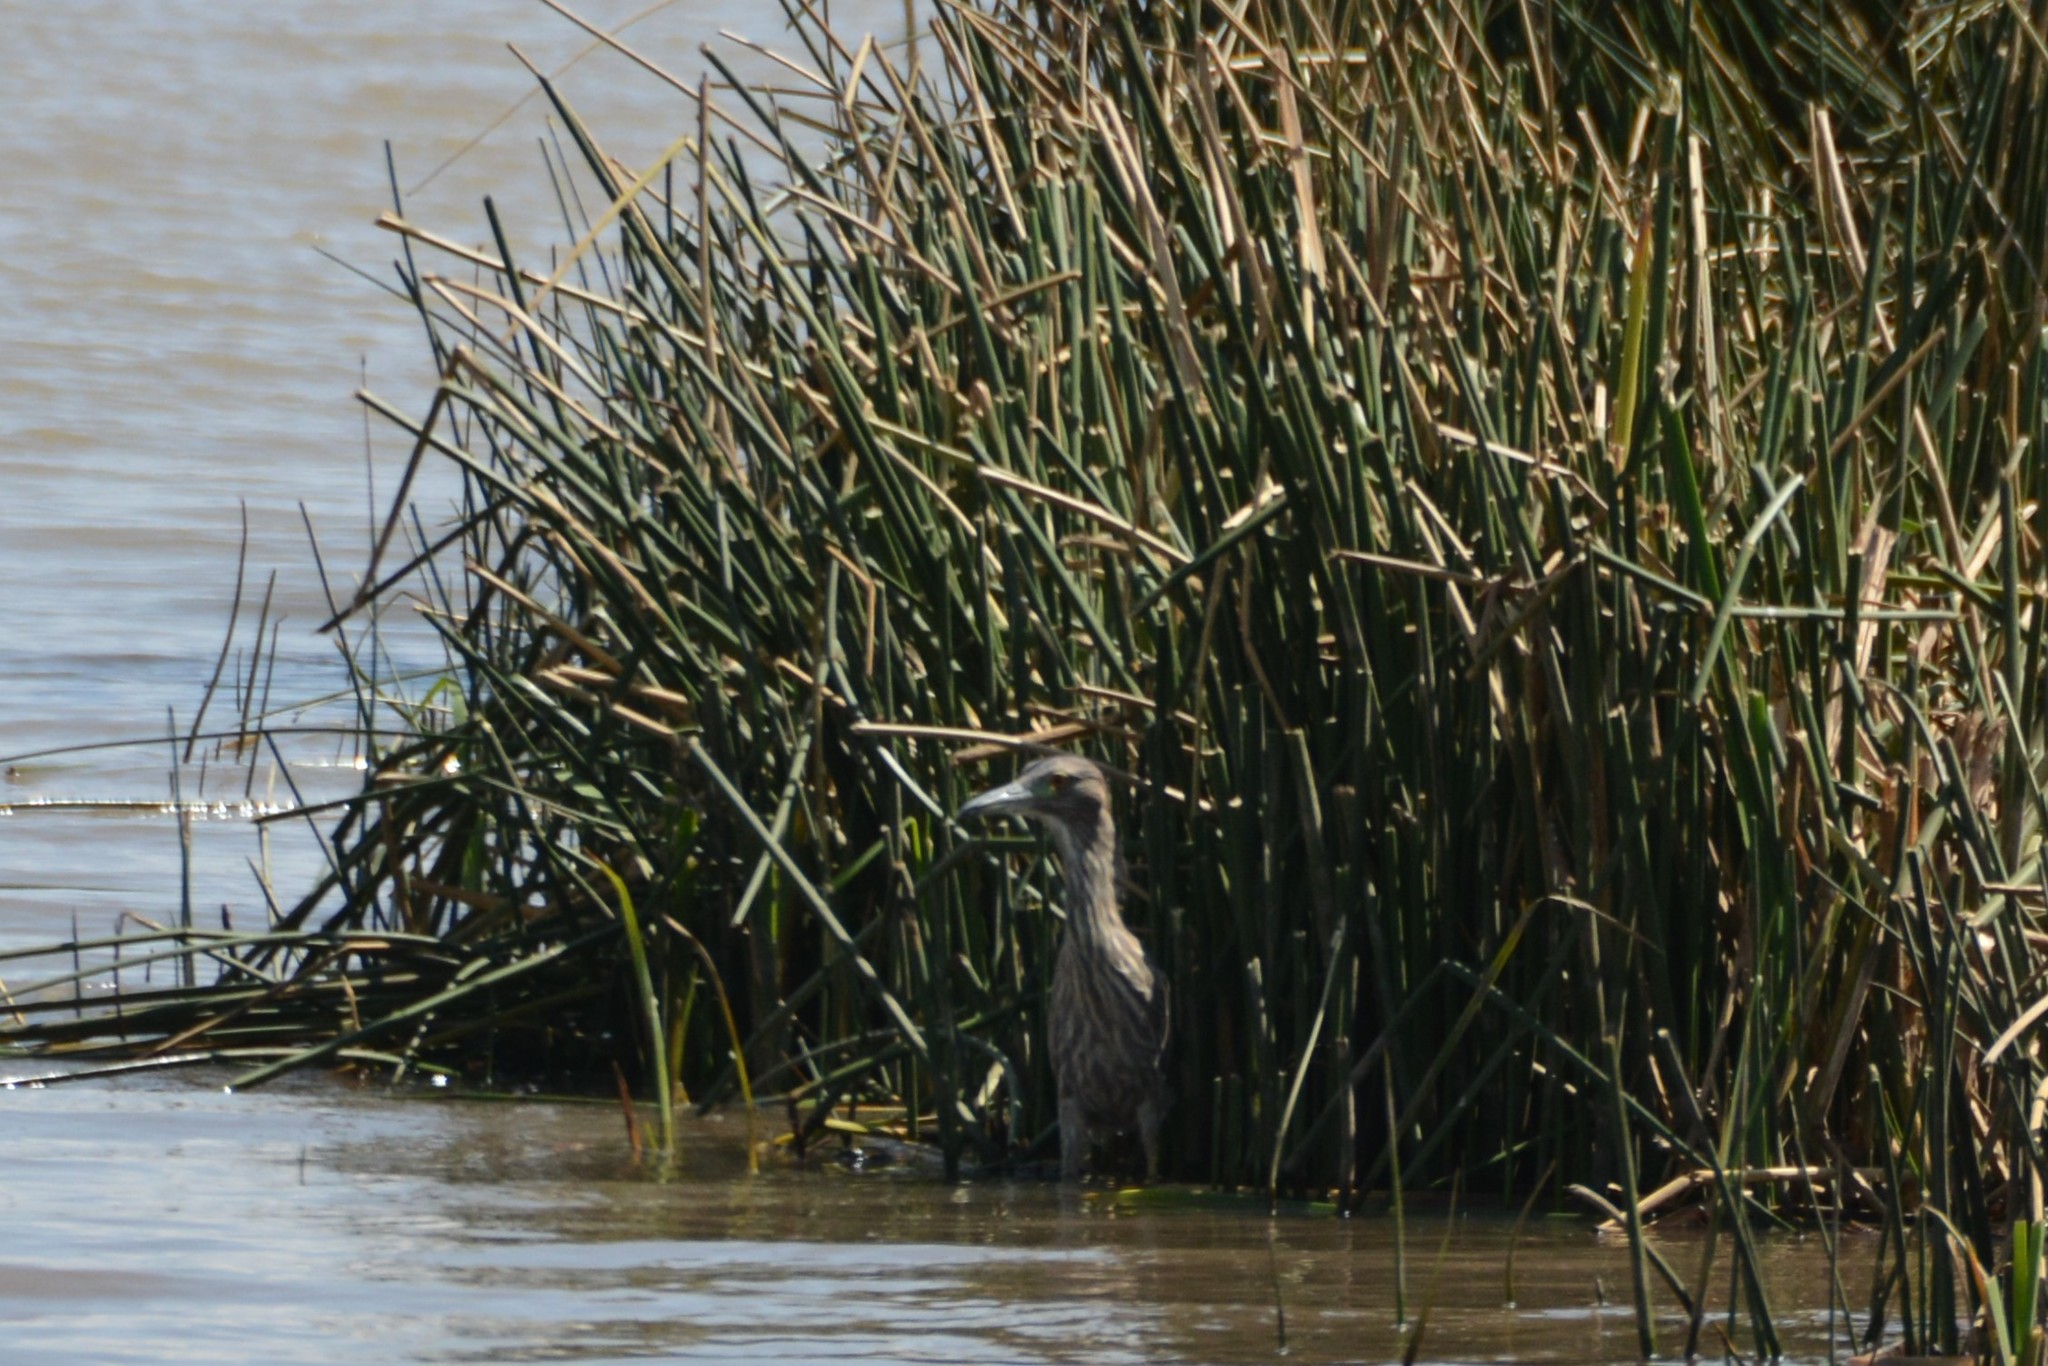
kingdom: Animalia
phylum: Chordata
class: Aves
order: Pelecaniformes
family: Ardeidae
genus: Nycticorax
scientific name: Nycticorax nycticorax
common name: Black-crowned night heron
